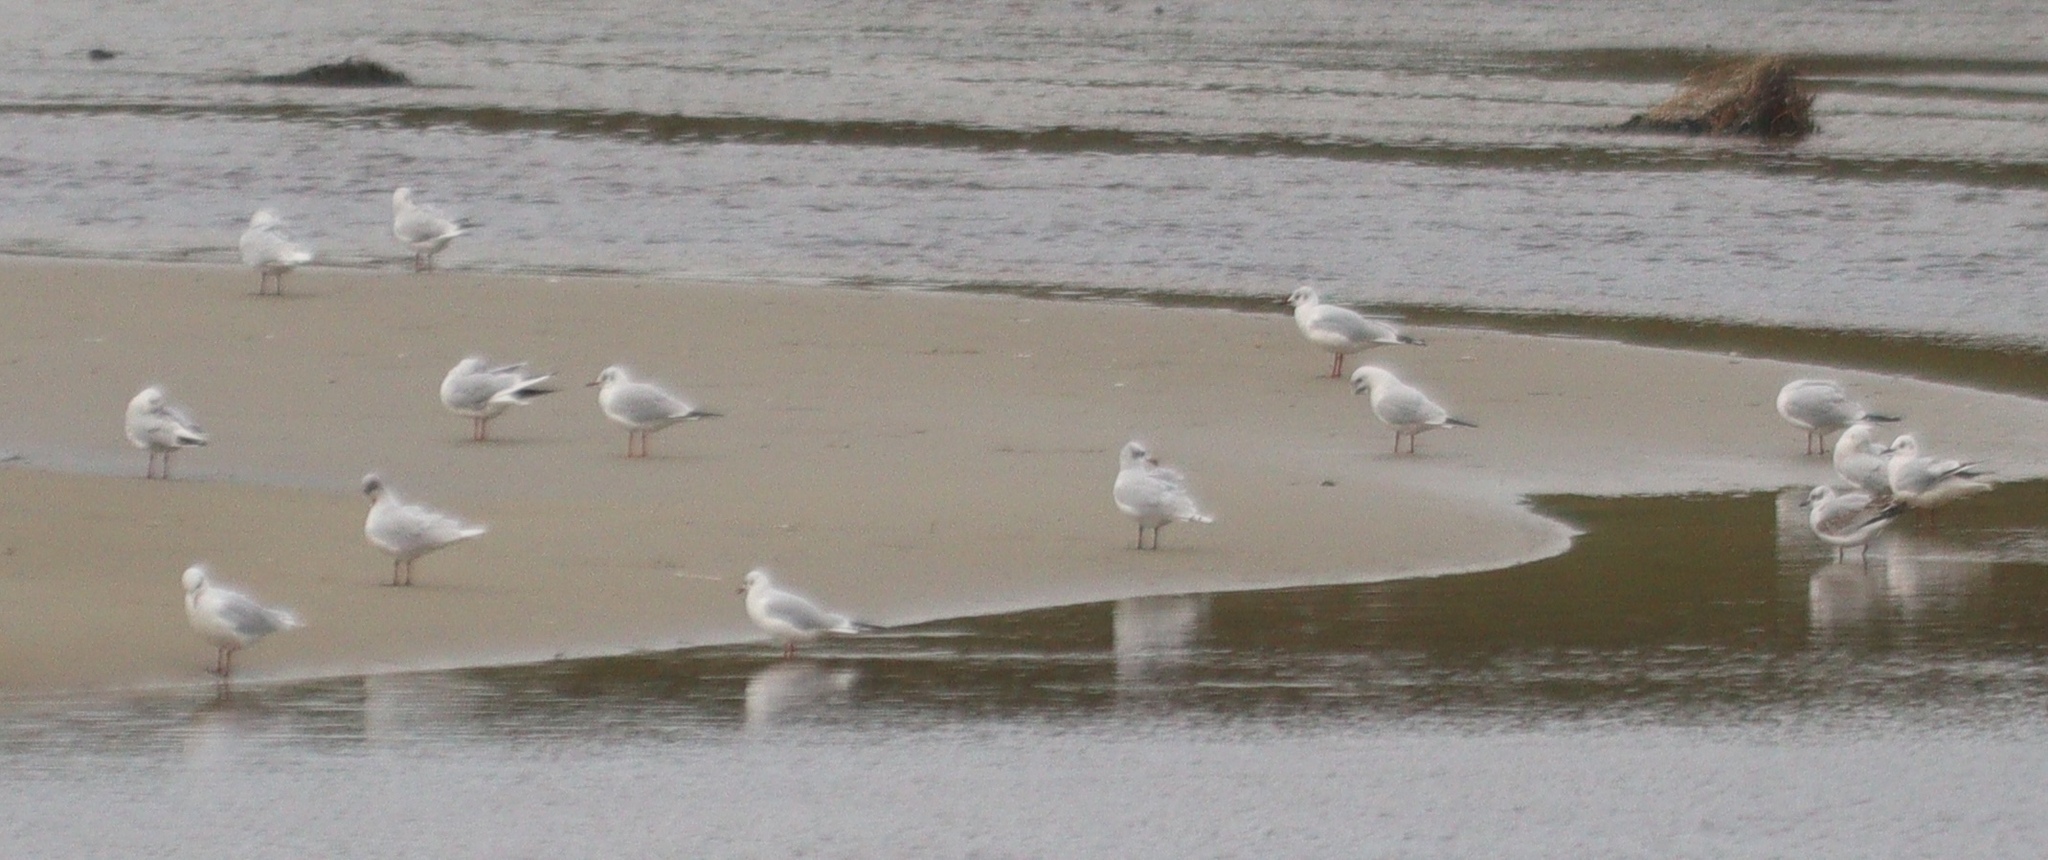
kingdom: Animalia
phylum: Chordata
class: Aves
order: Charadriiformes
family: Laridae
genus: Chroicocephalus
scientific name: Chroicocephalus ridibundus
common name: Black-headed gull
